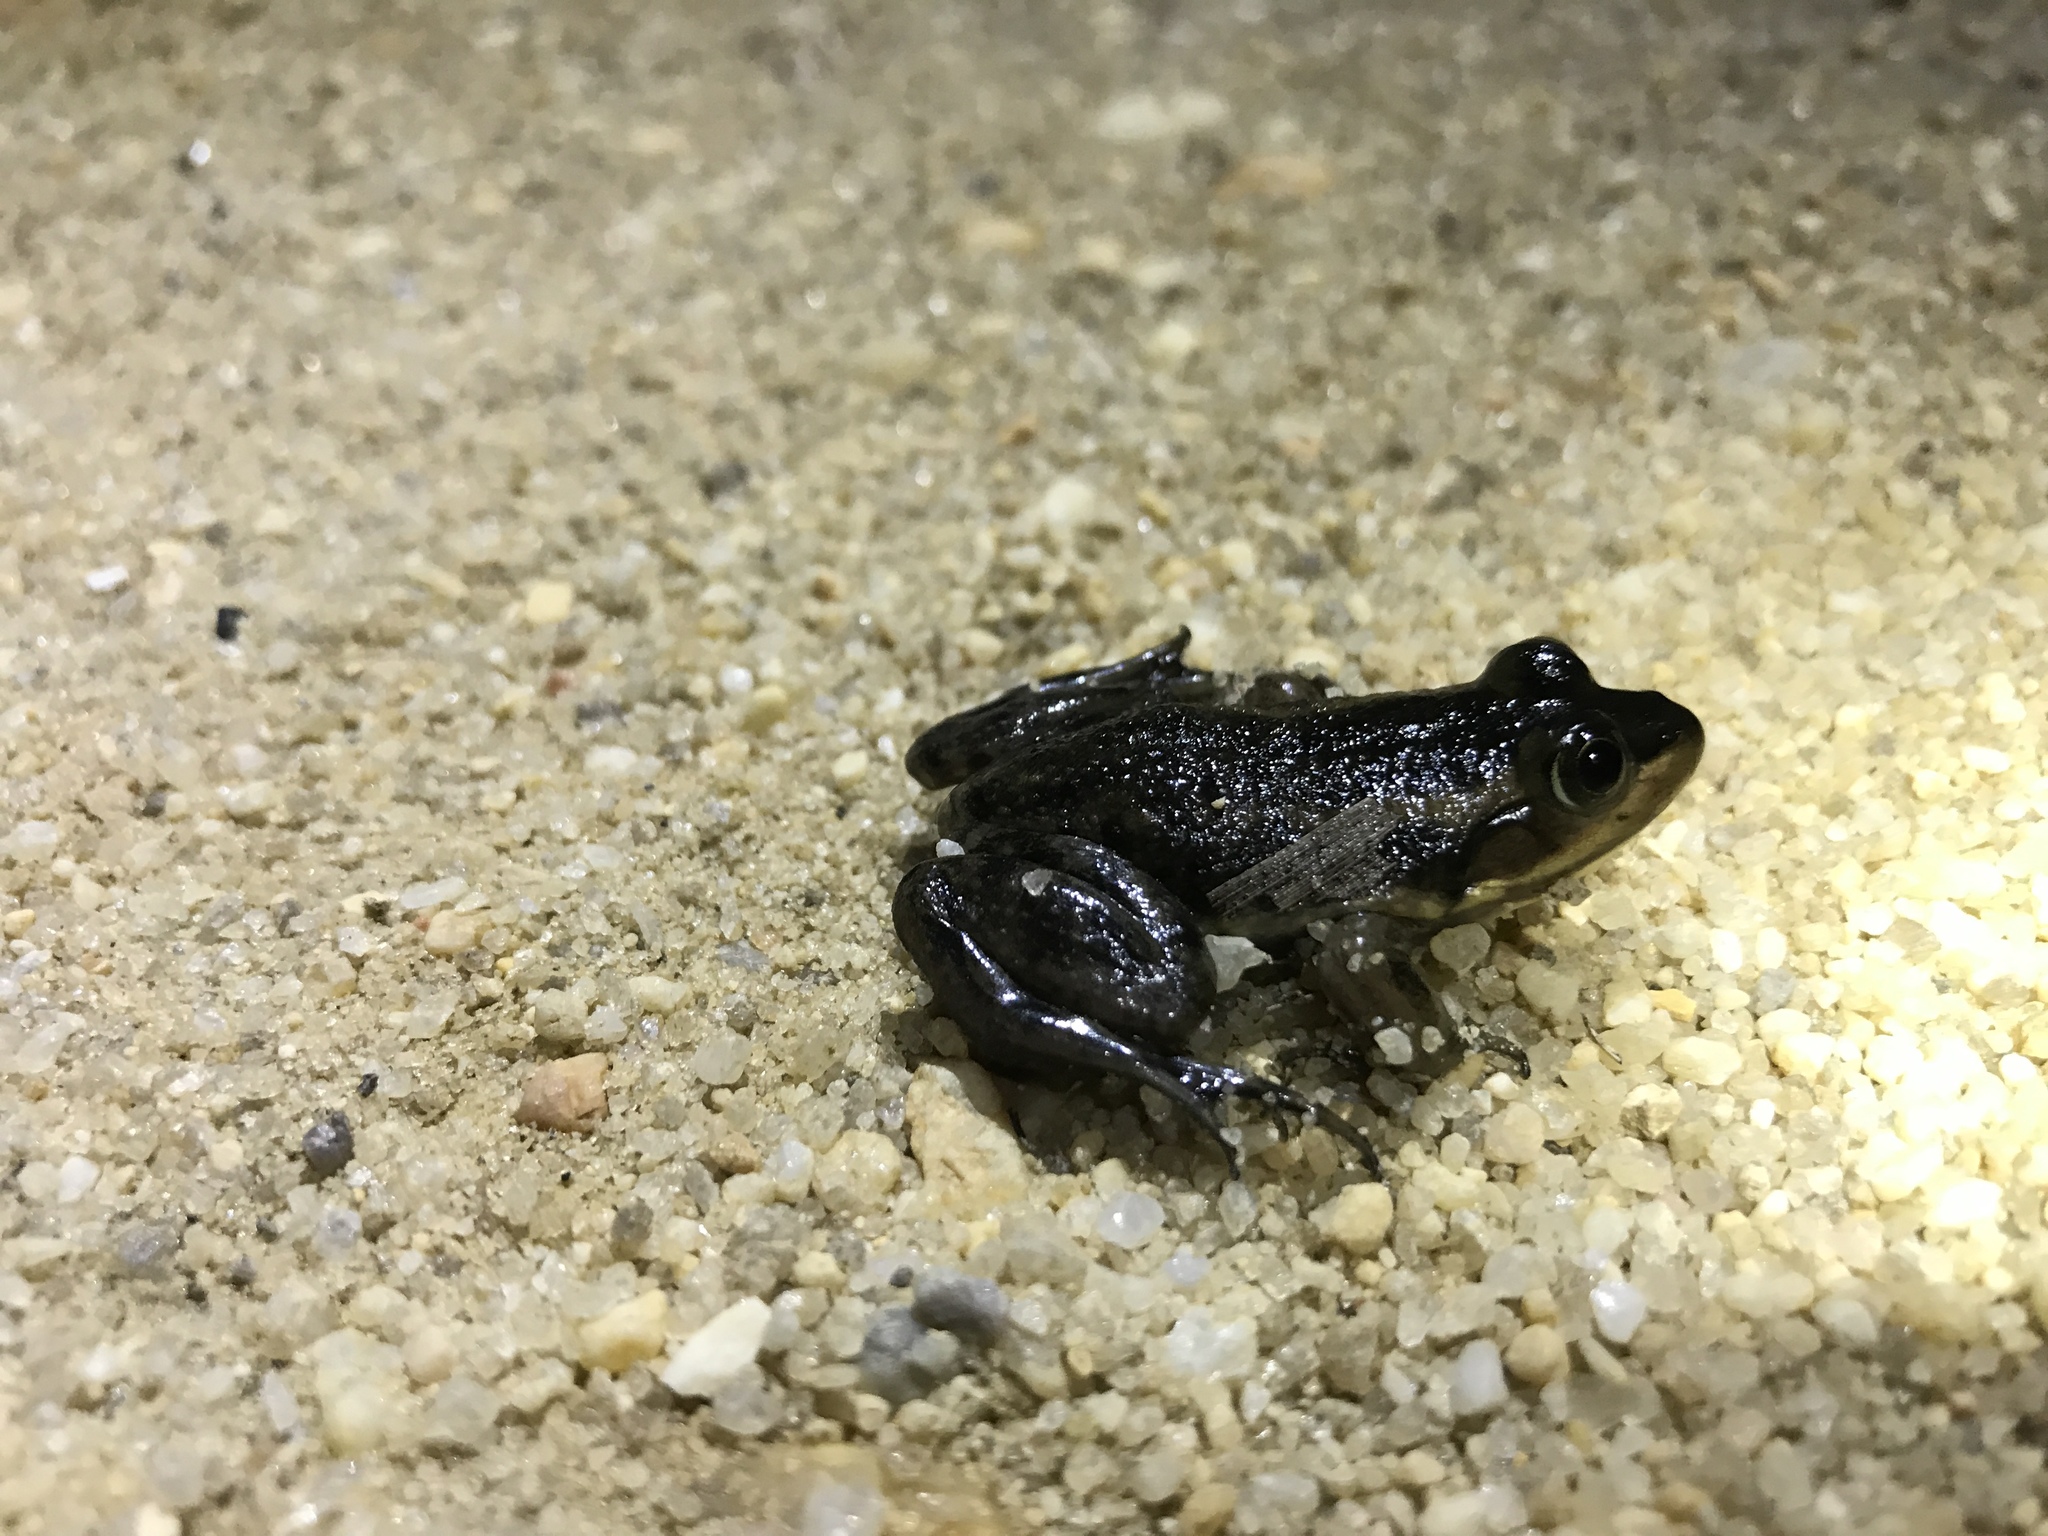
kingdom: Animalia
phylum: Chordata
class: Amphibia
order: Anura
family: Ranidae
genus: Lithobates
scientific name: Lithobates virgatipes
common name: Carpenter frog
